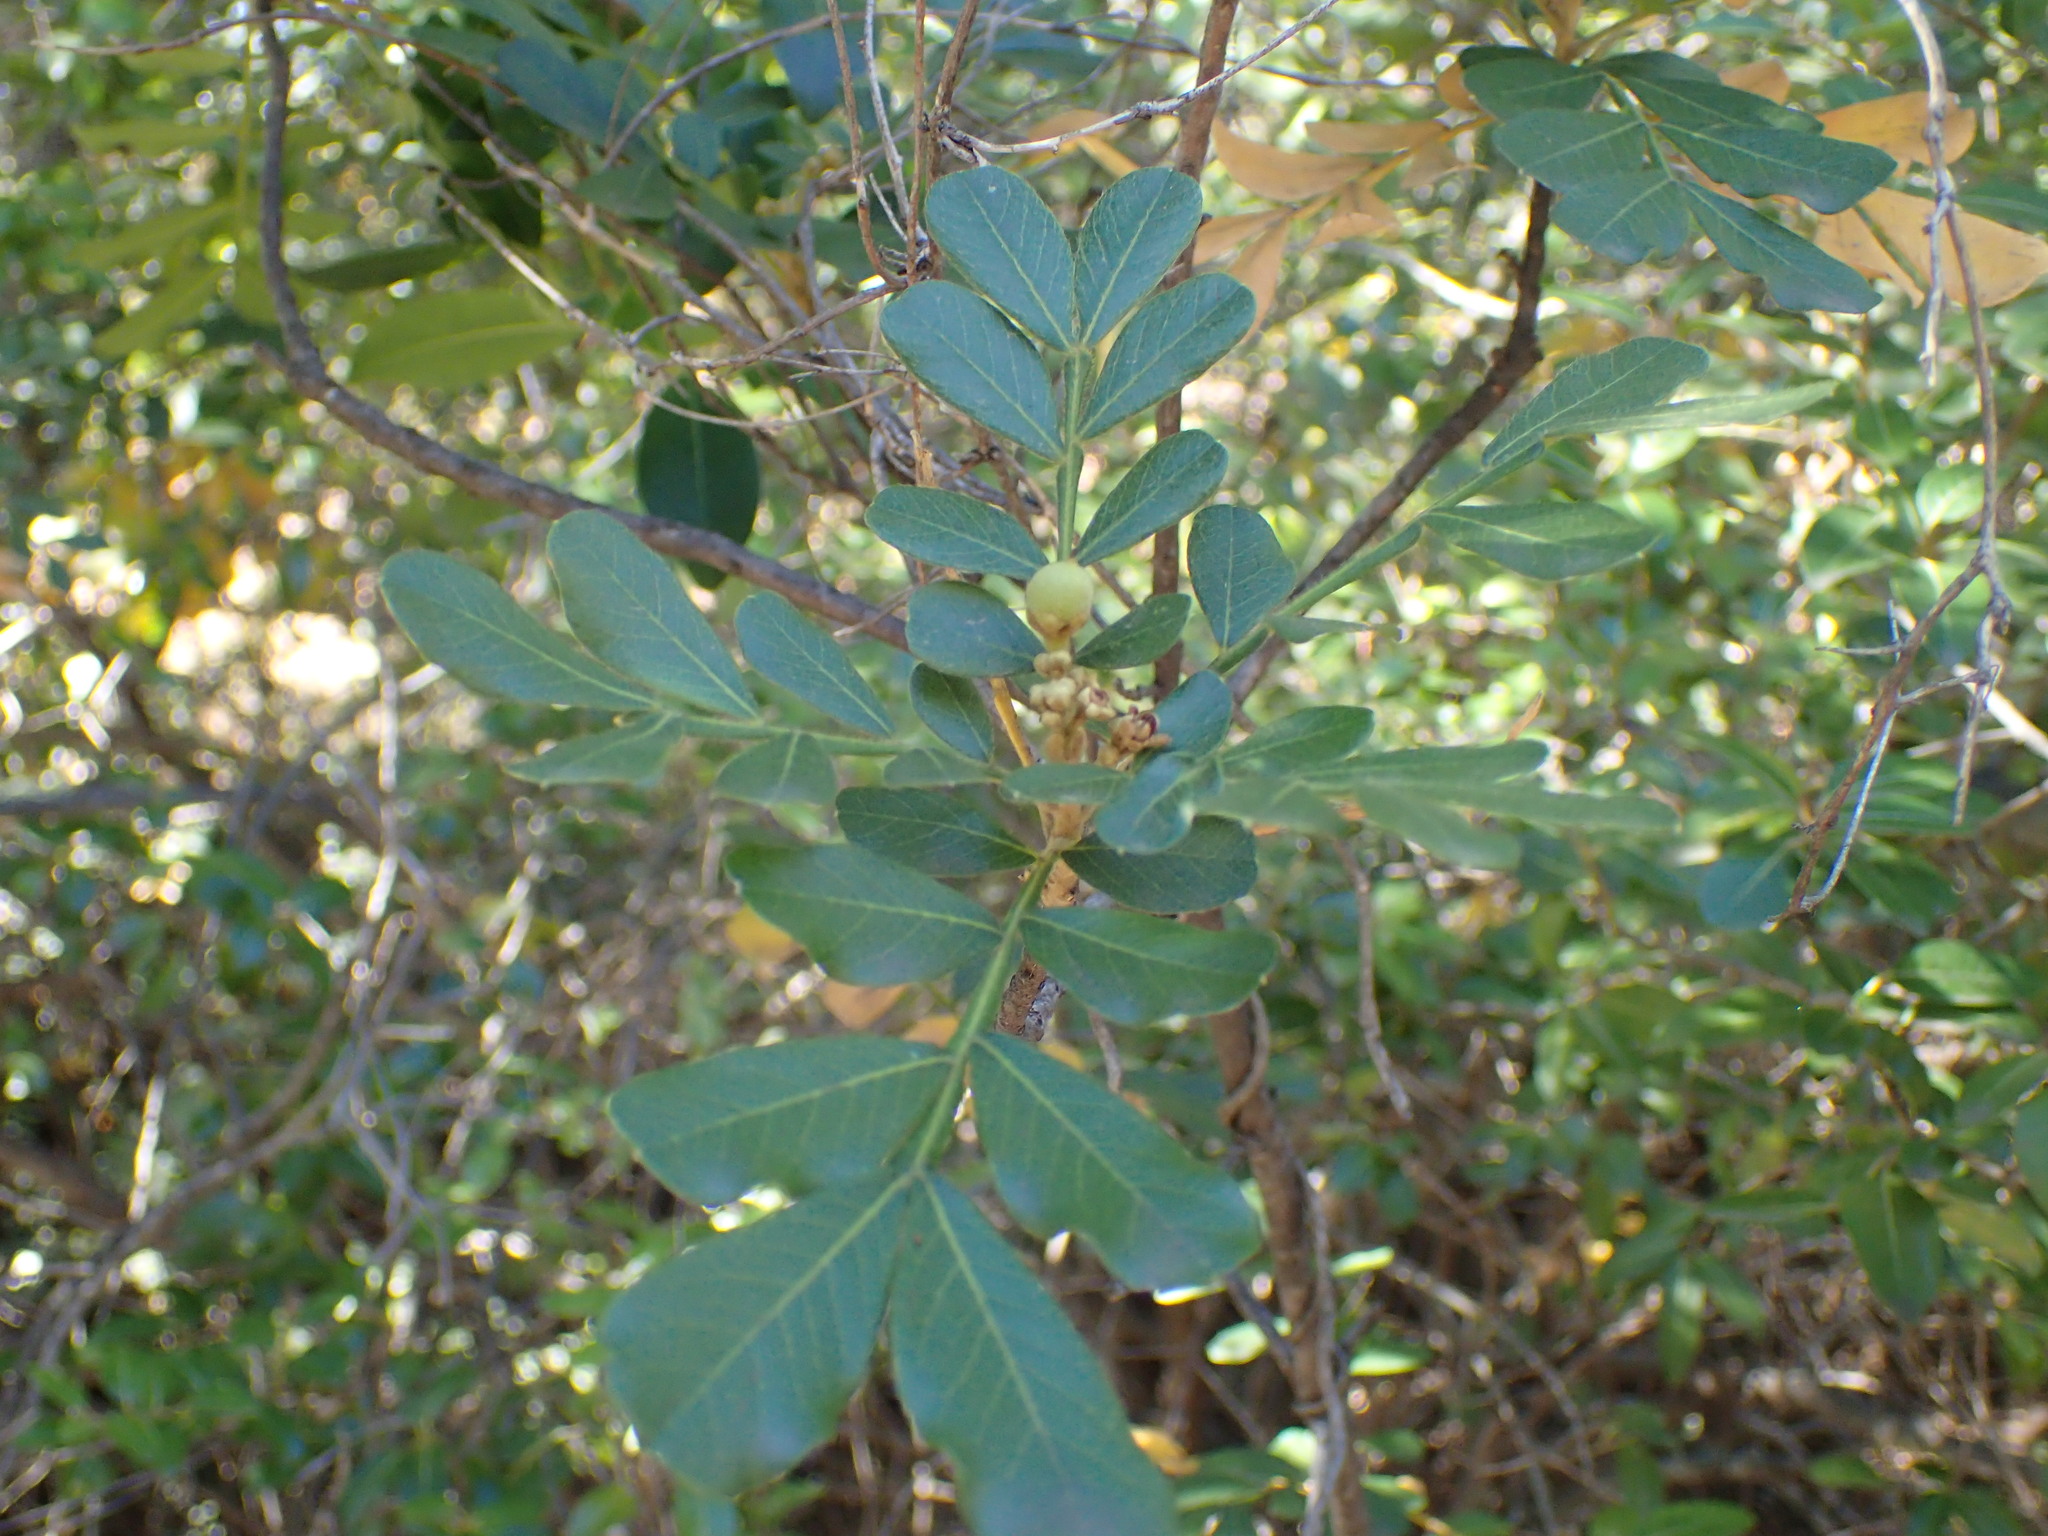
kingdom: Plantae
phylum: Tracheophyta
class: Magnoliopsida
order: Sapindales
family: Sapindaceae
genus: Hippobromus
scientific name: Hippobromus pauciflorus
